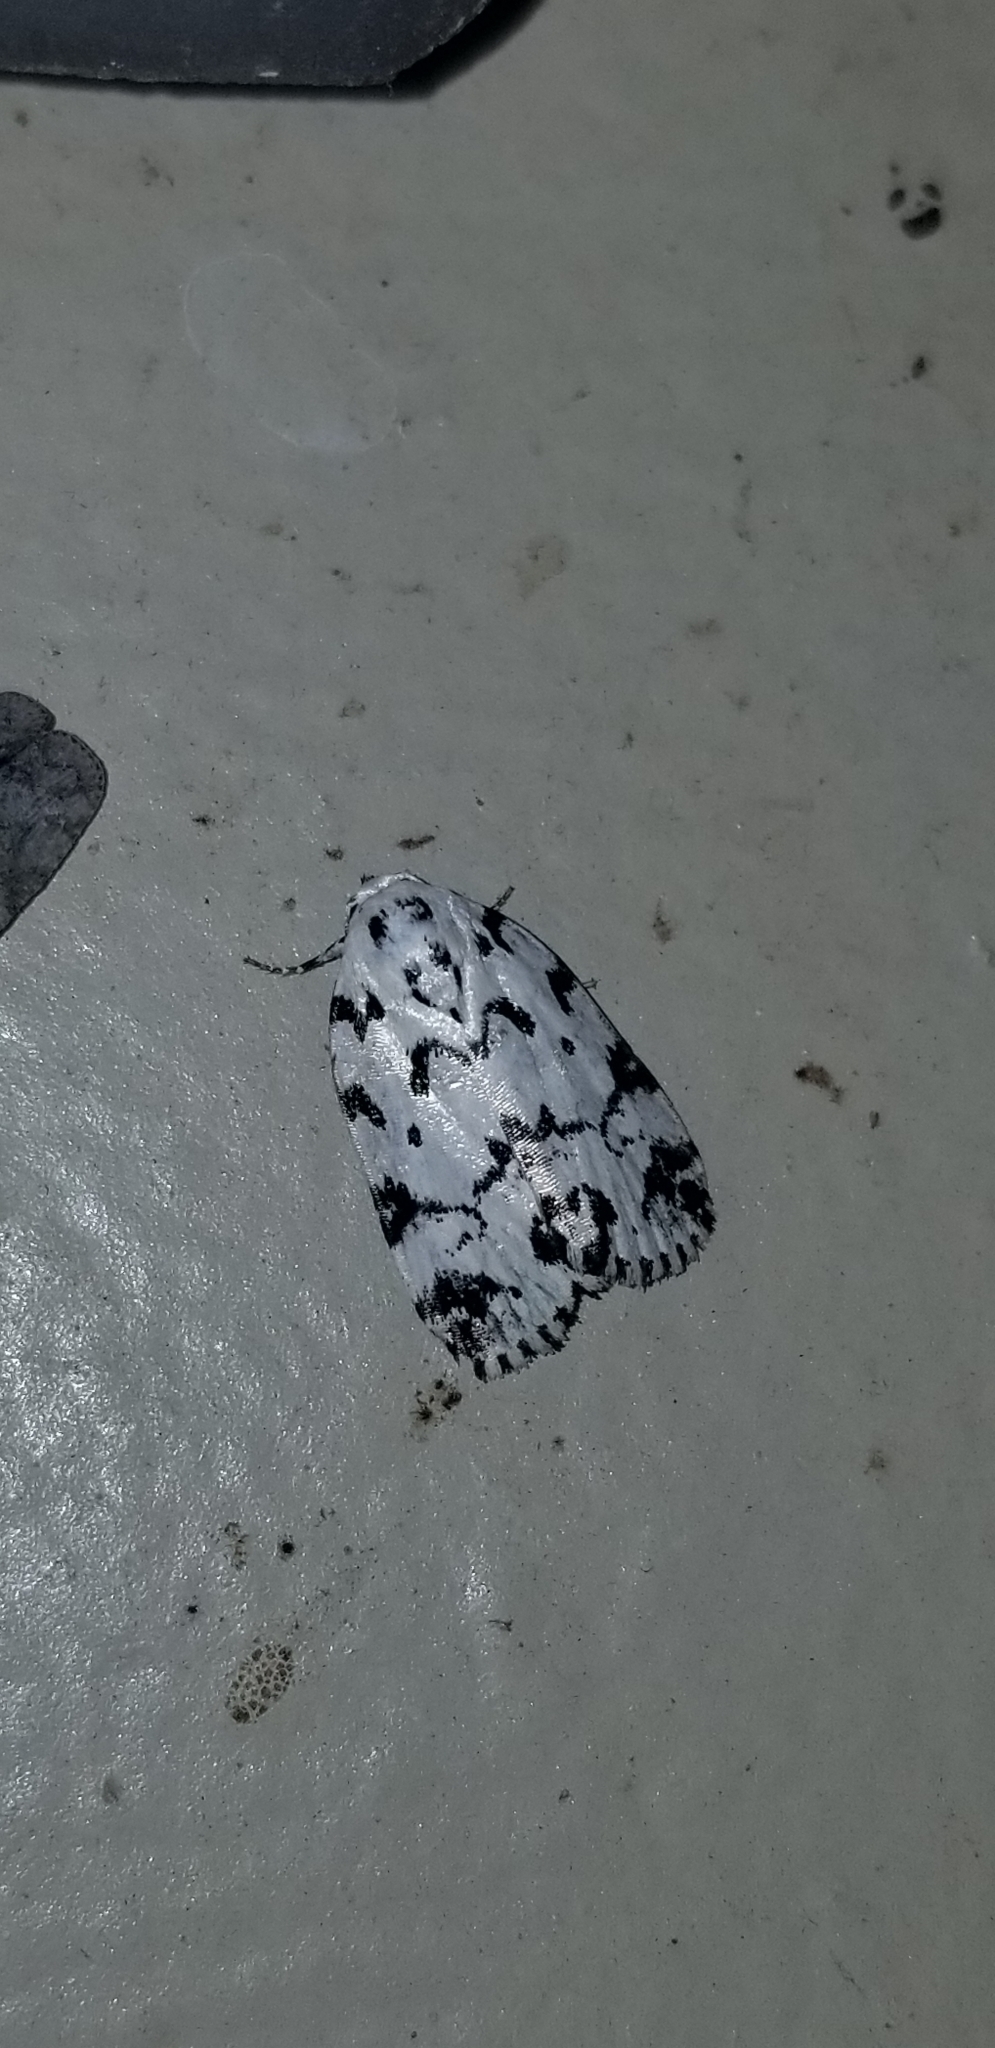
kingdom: Animalia
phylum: Arthropoda
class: Insecta
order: Lepidoptera
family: Noctuidae
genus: Polygrammate
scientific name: Polygrammate hebraeicum
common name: Hebrew moth
